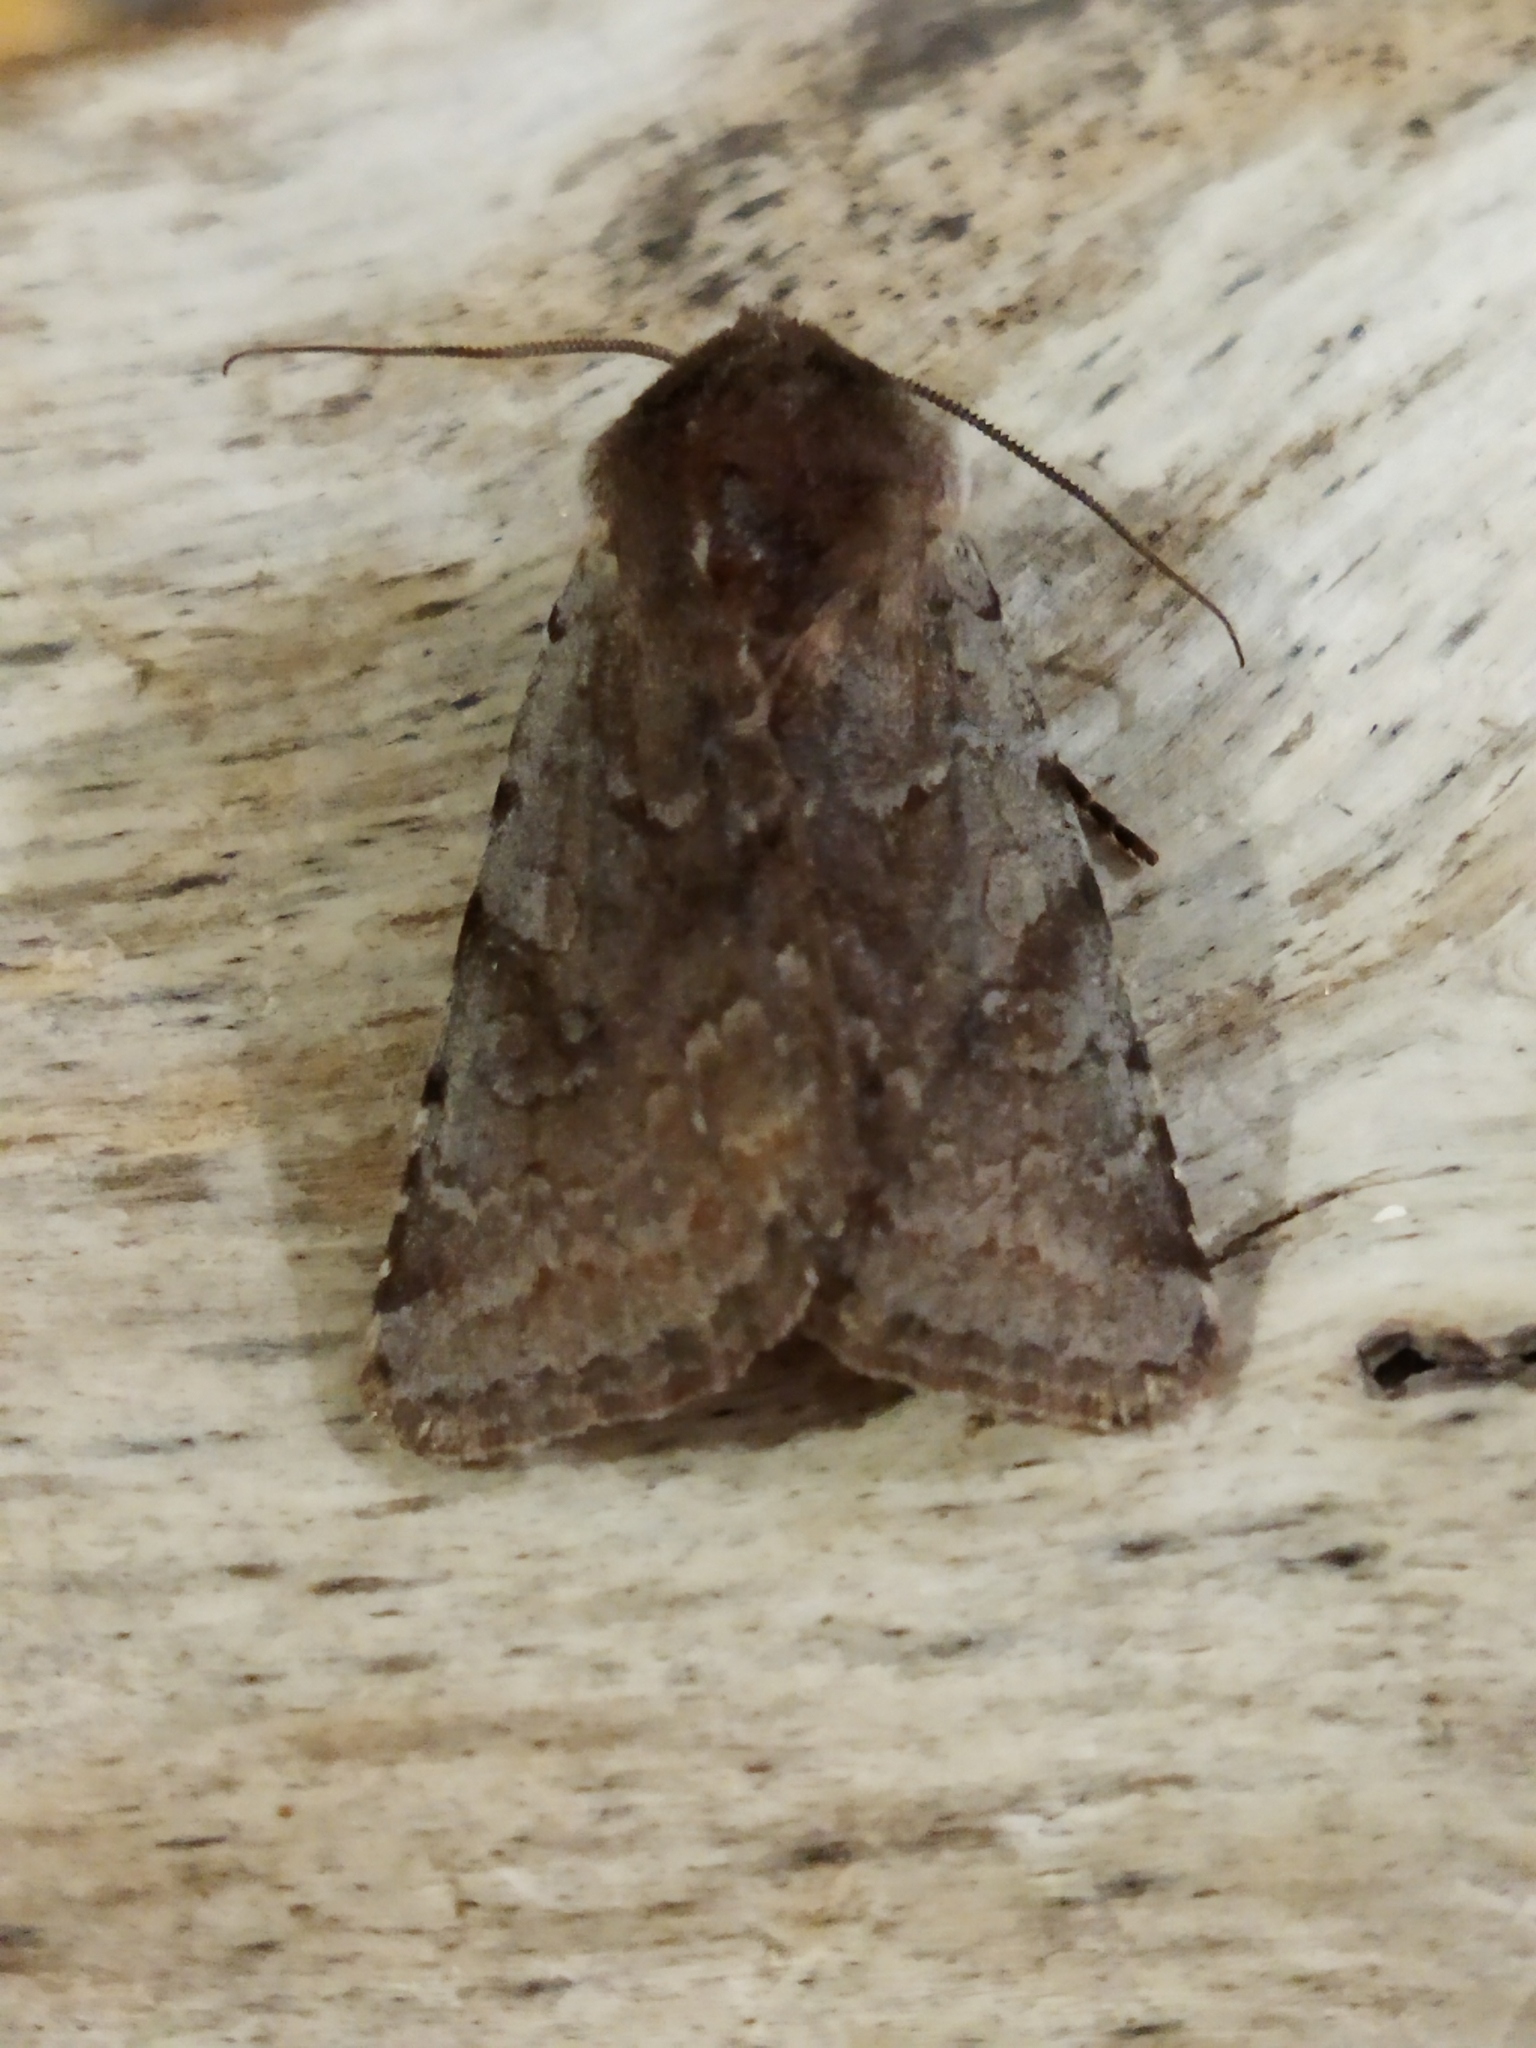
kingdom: Animalia
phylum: Arthropoda
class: Insecta
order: Lepidoptera
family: Noctuidae
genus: Cerastis
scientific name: Cerastis rubricosa
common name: Red chestnut
